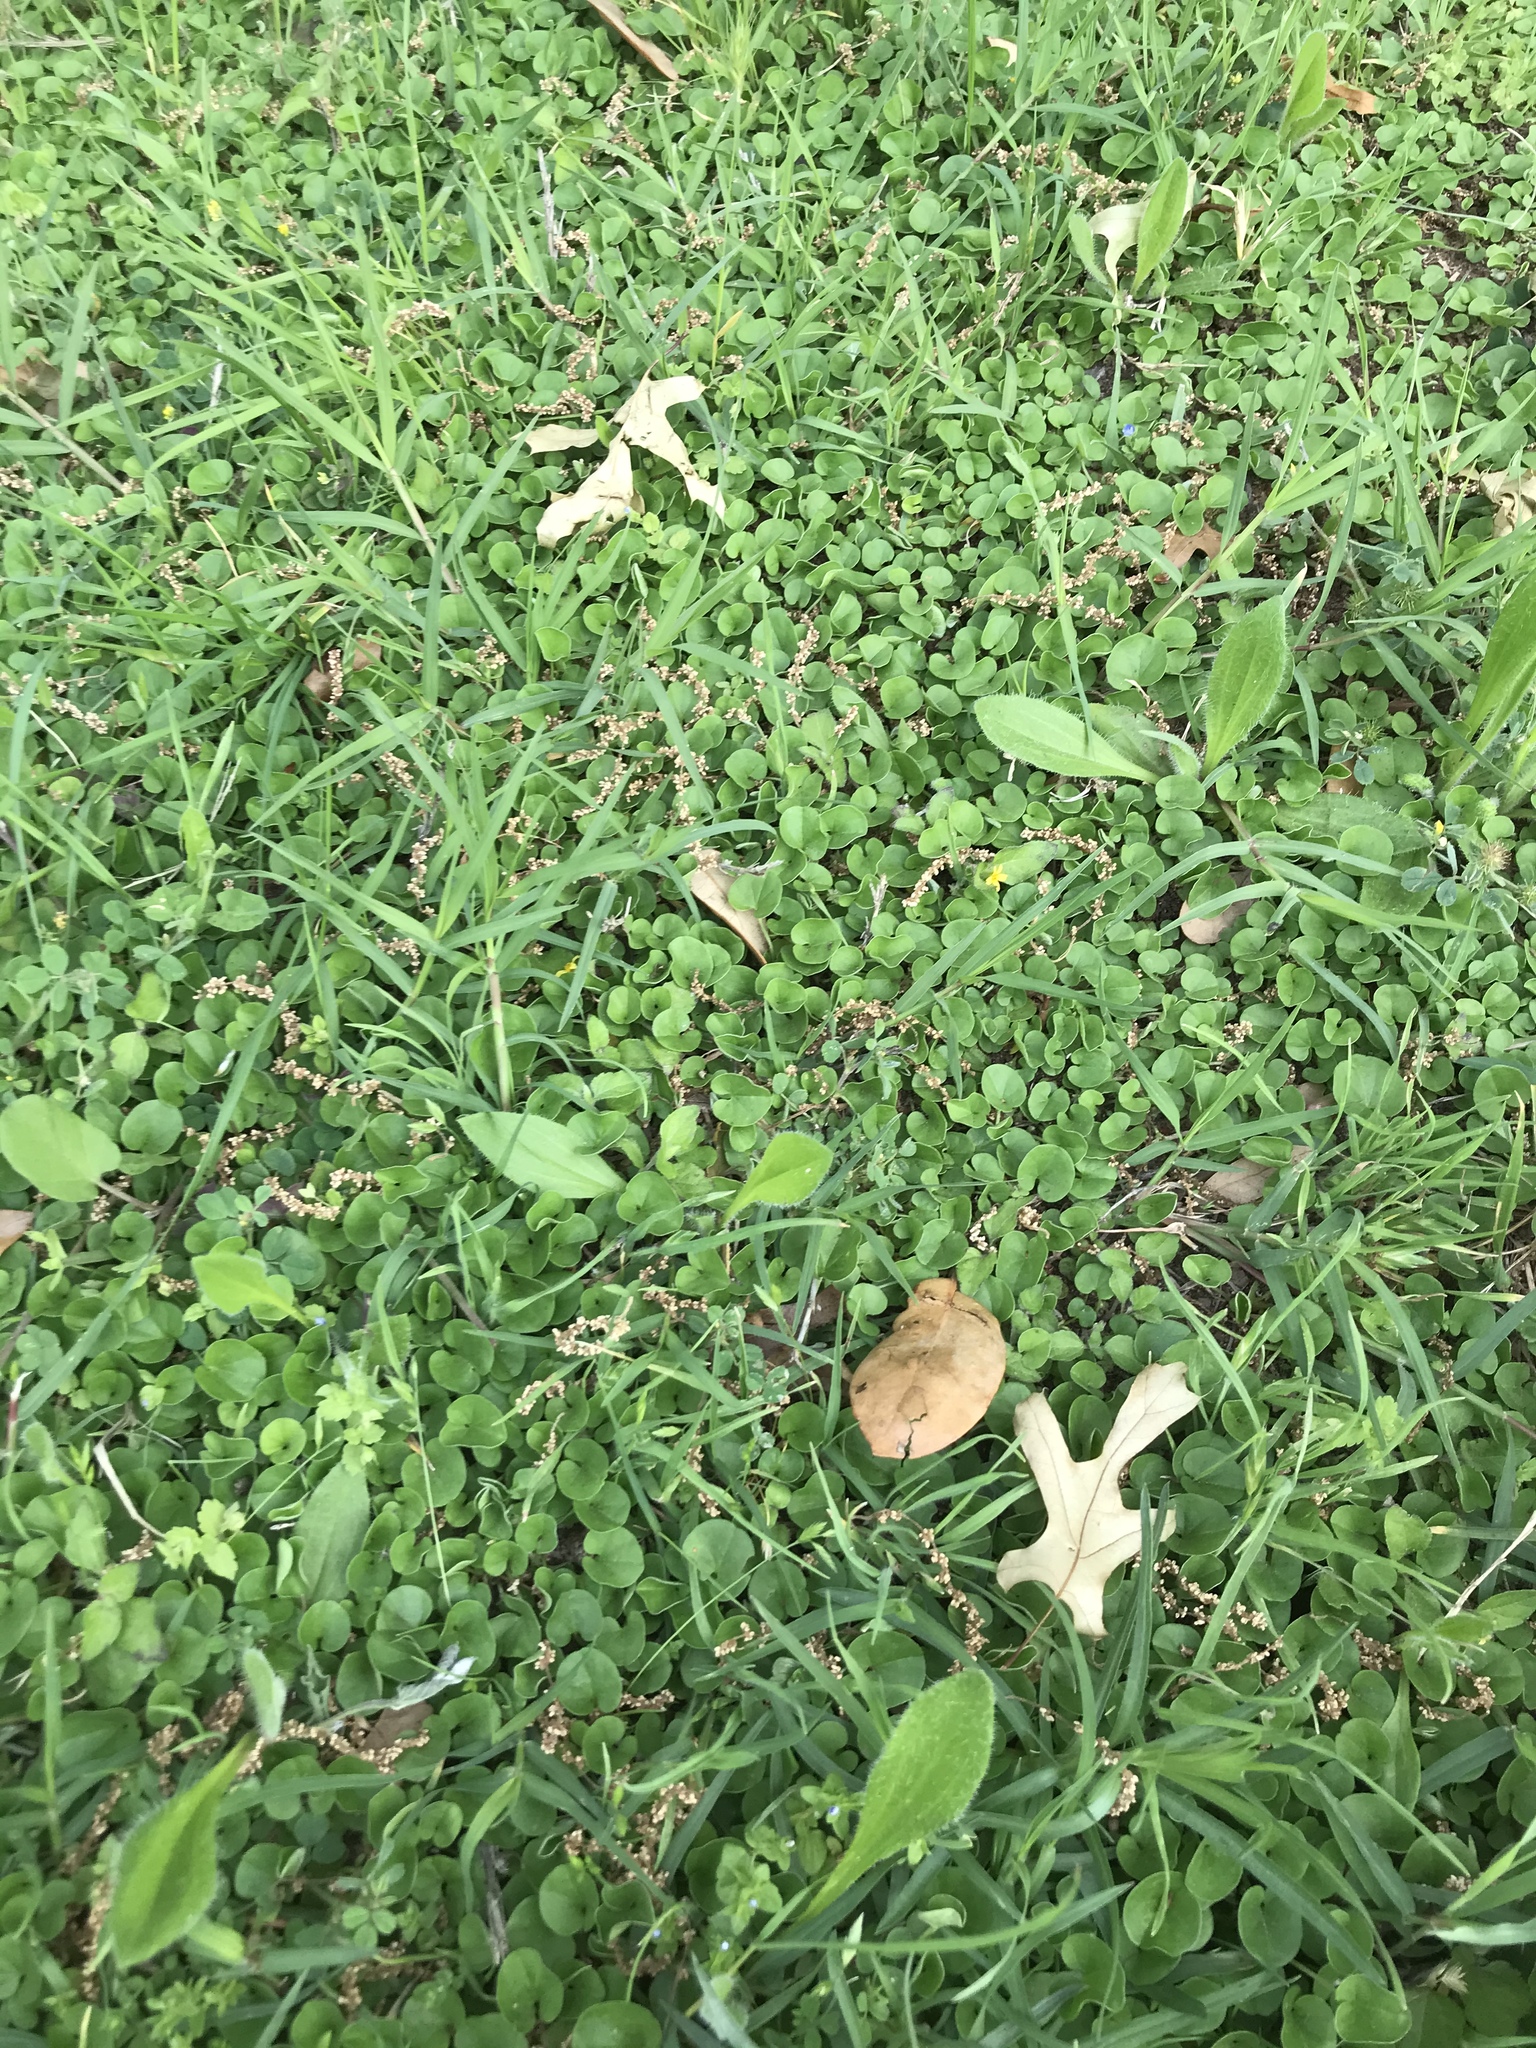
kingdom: Plantae
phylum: Tracheophyta
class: Magnoliopsida
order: Solanales
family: Convolvulaceae
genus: Dichondra
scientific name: Dichondra carolinensis
